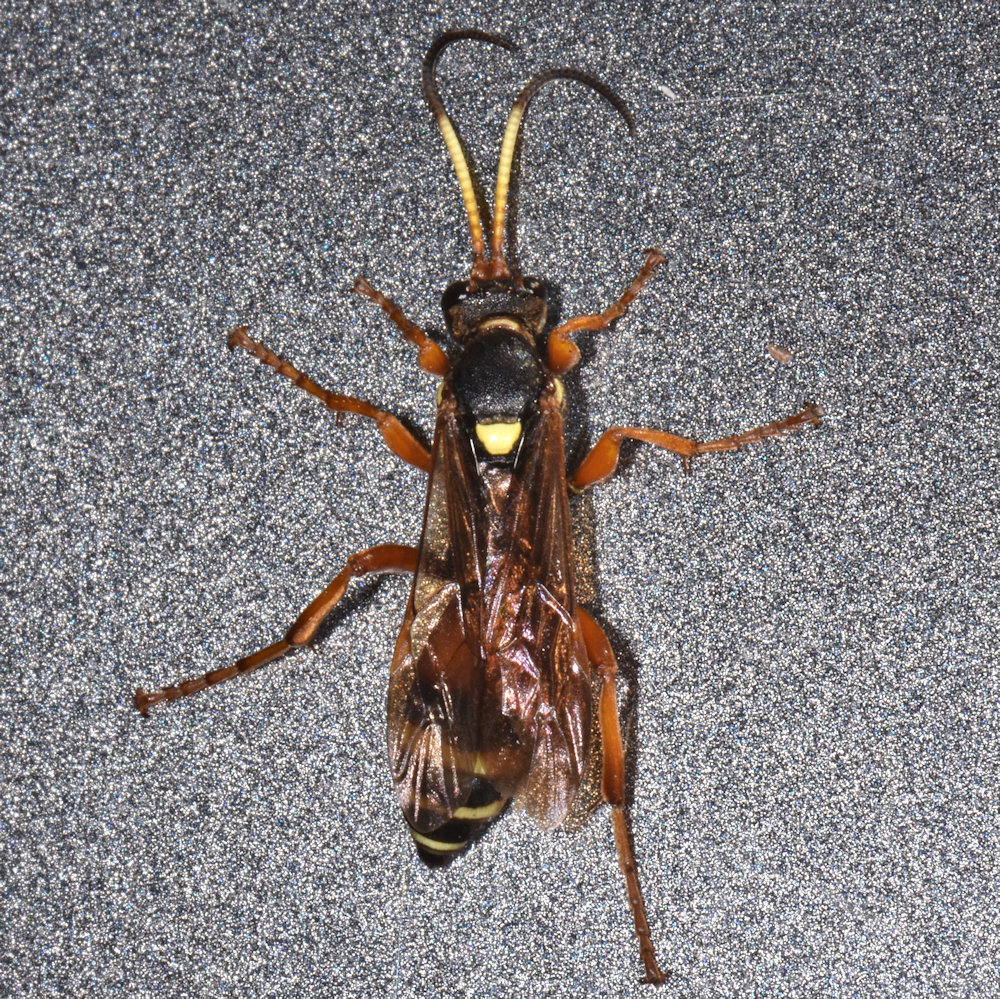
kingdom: Animalia
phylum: Arthropoda
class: Insecta
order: Hymenoptera
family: Ichneumonidae
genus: Ichneumon
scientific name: Ichneumon ambulatorius
